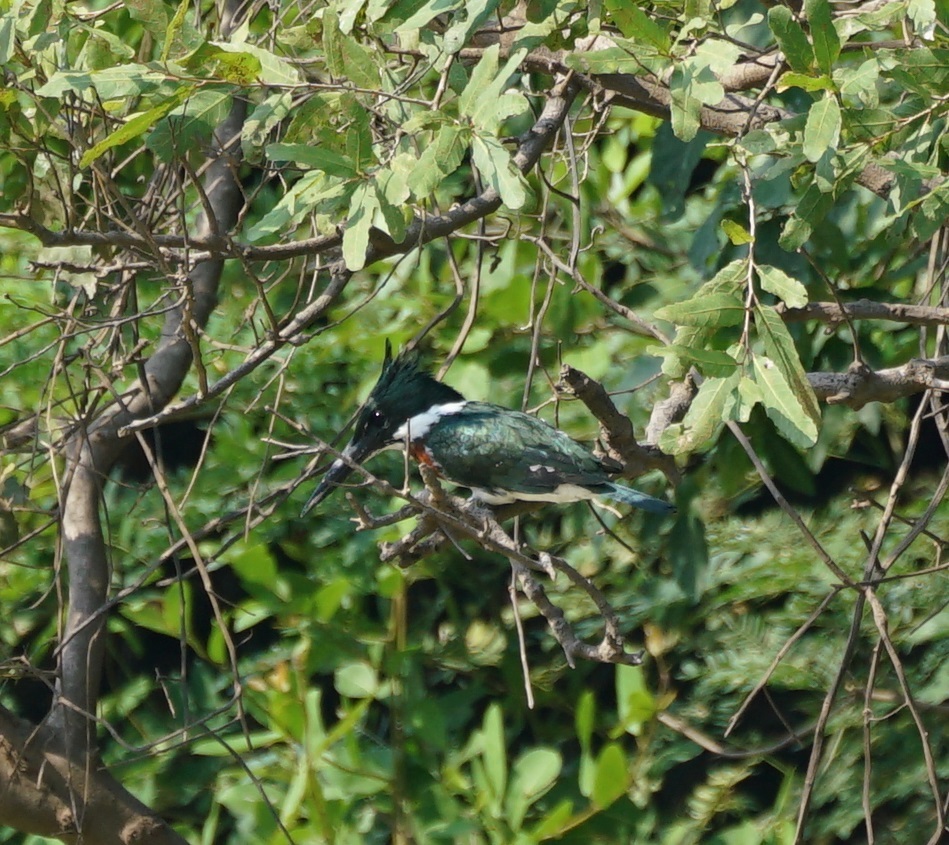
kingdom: Animalia
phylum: Chordata
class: Aves
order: Coraciiformes
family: Alcedinidae
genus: Chloroceryle
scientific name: Chloroceryle amazona
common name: Amazon kingfisher
